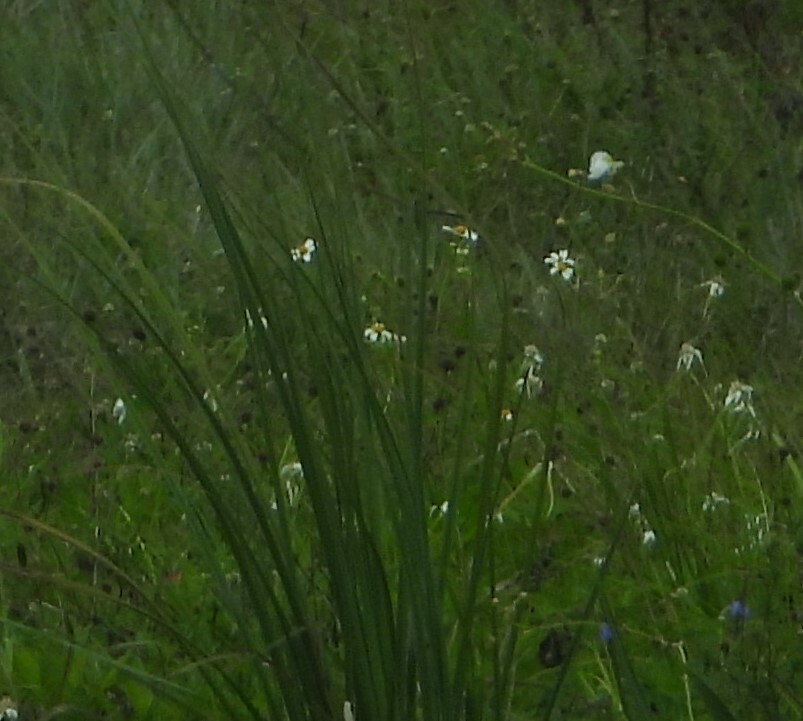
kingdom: Plantae
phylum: Tracheophyta
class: Magnoliopsida
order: Asterales
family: Asteraceae
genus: Bidens
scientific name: Bidens alba
